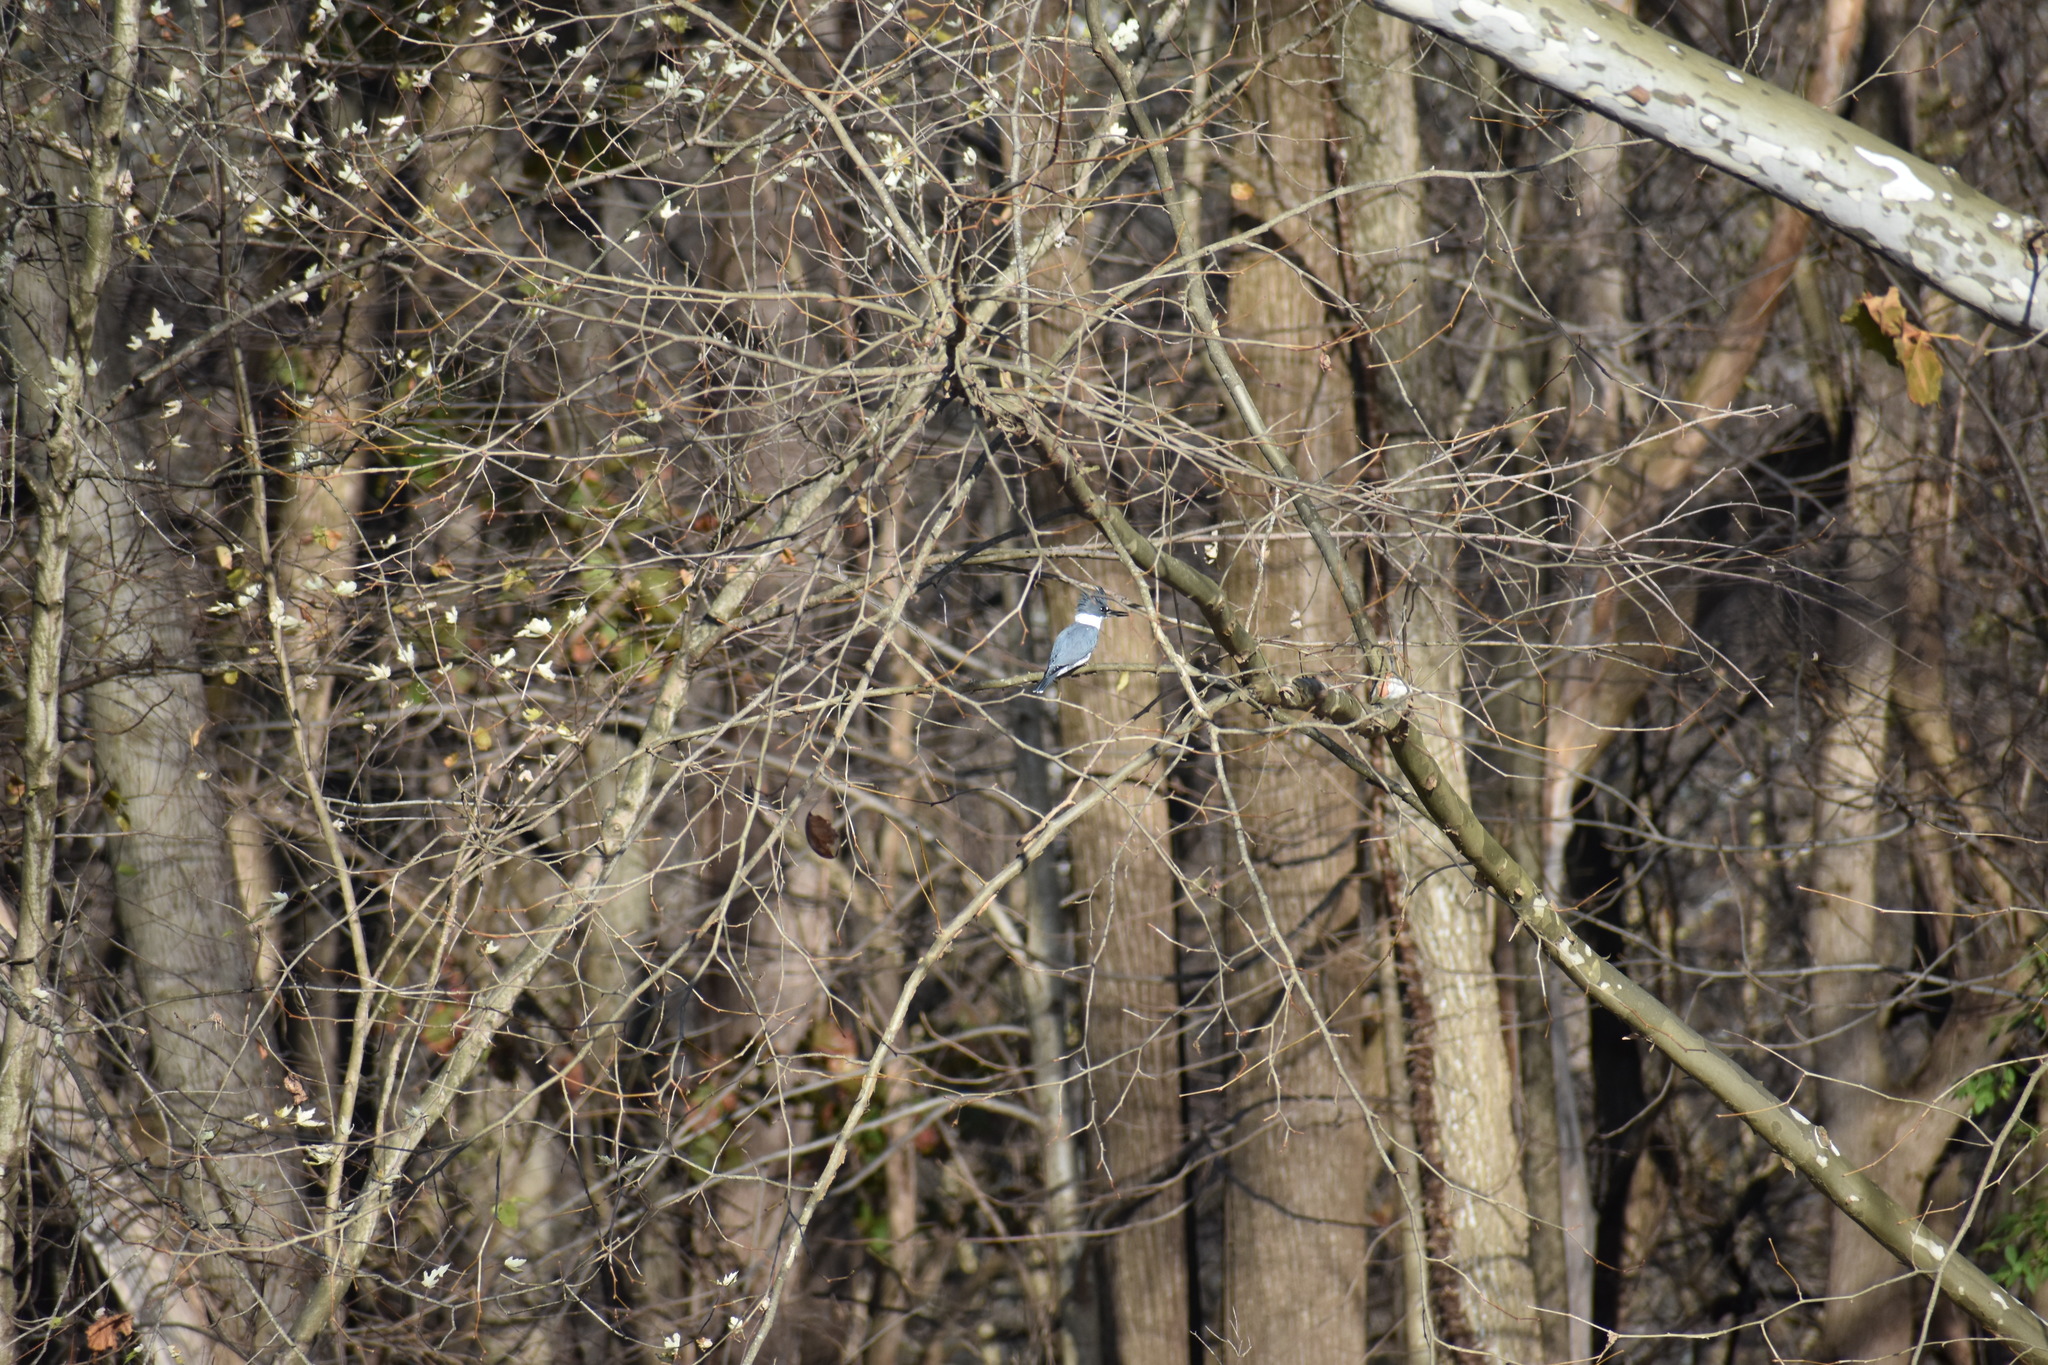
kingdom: Animalia
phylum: Chordata
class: Aves
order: Coraciiformes
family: Alcedinidae
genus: Megaceryle
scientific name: Megaceryle alcyon
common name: Belted kingfisher
